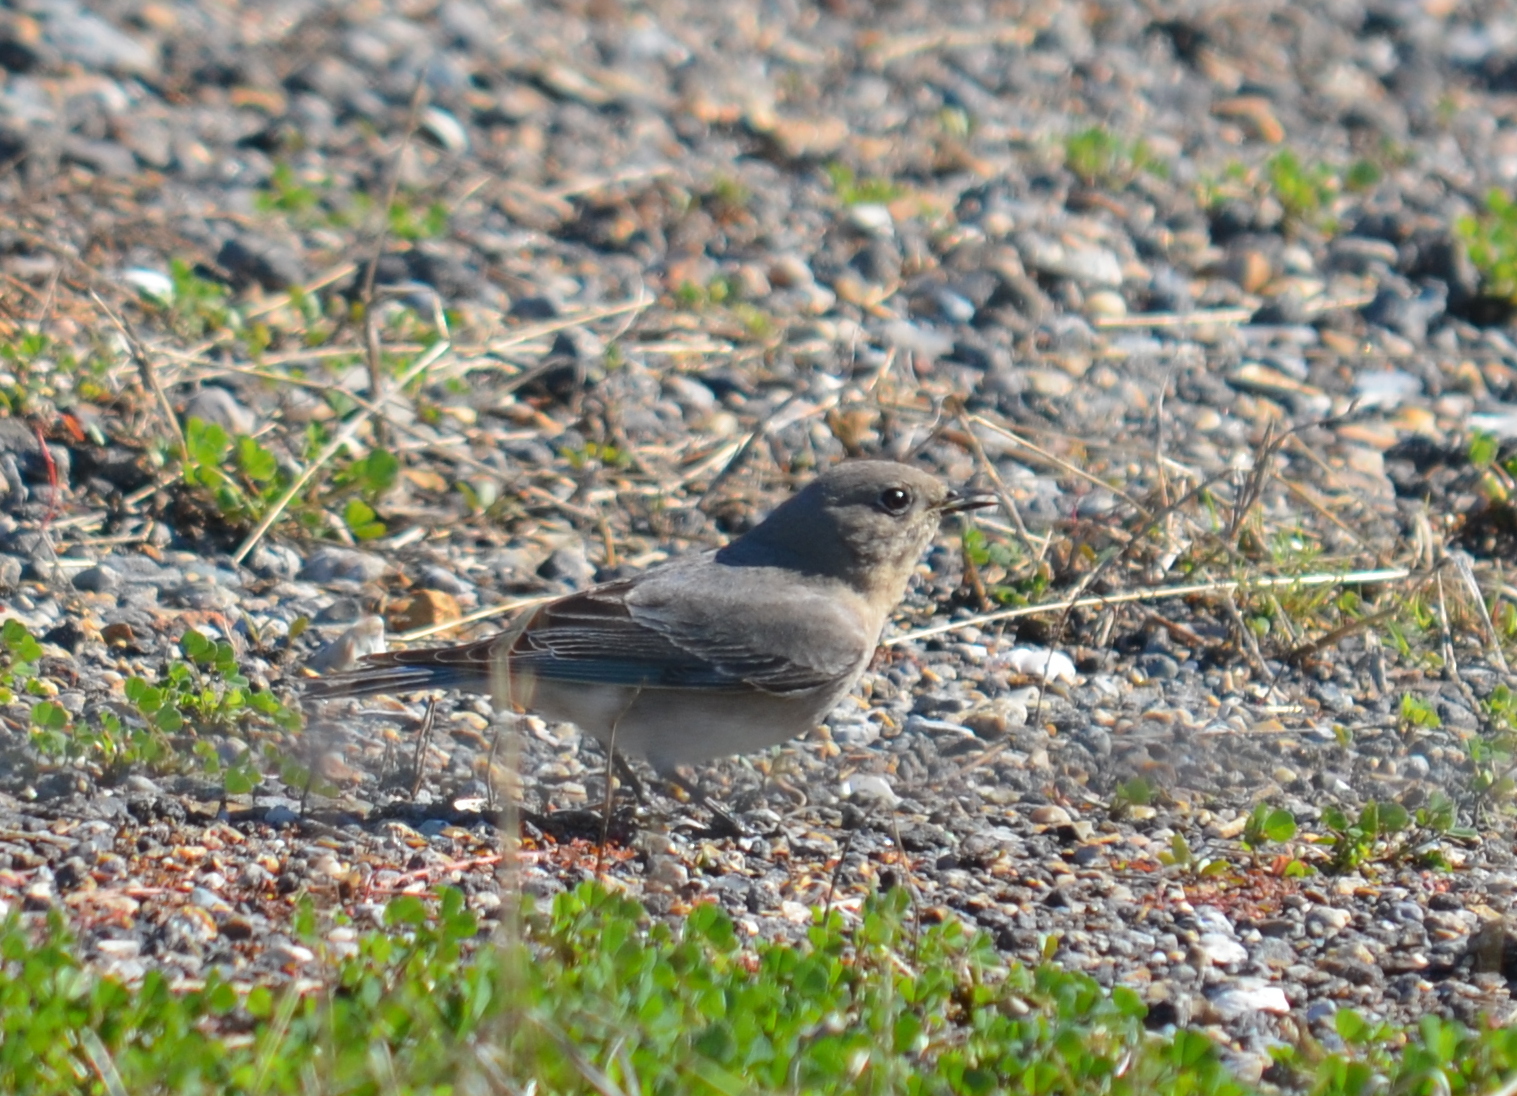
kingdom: Animalia
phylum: Chordata
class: Aves
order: Passeriformes
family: Turdidae
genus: Sialia
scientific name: Sialia currucoides
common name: Mountain bluebird
